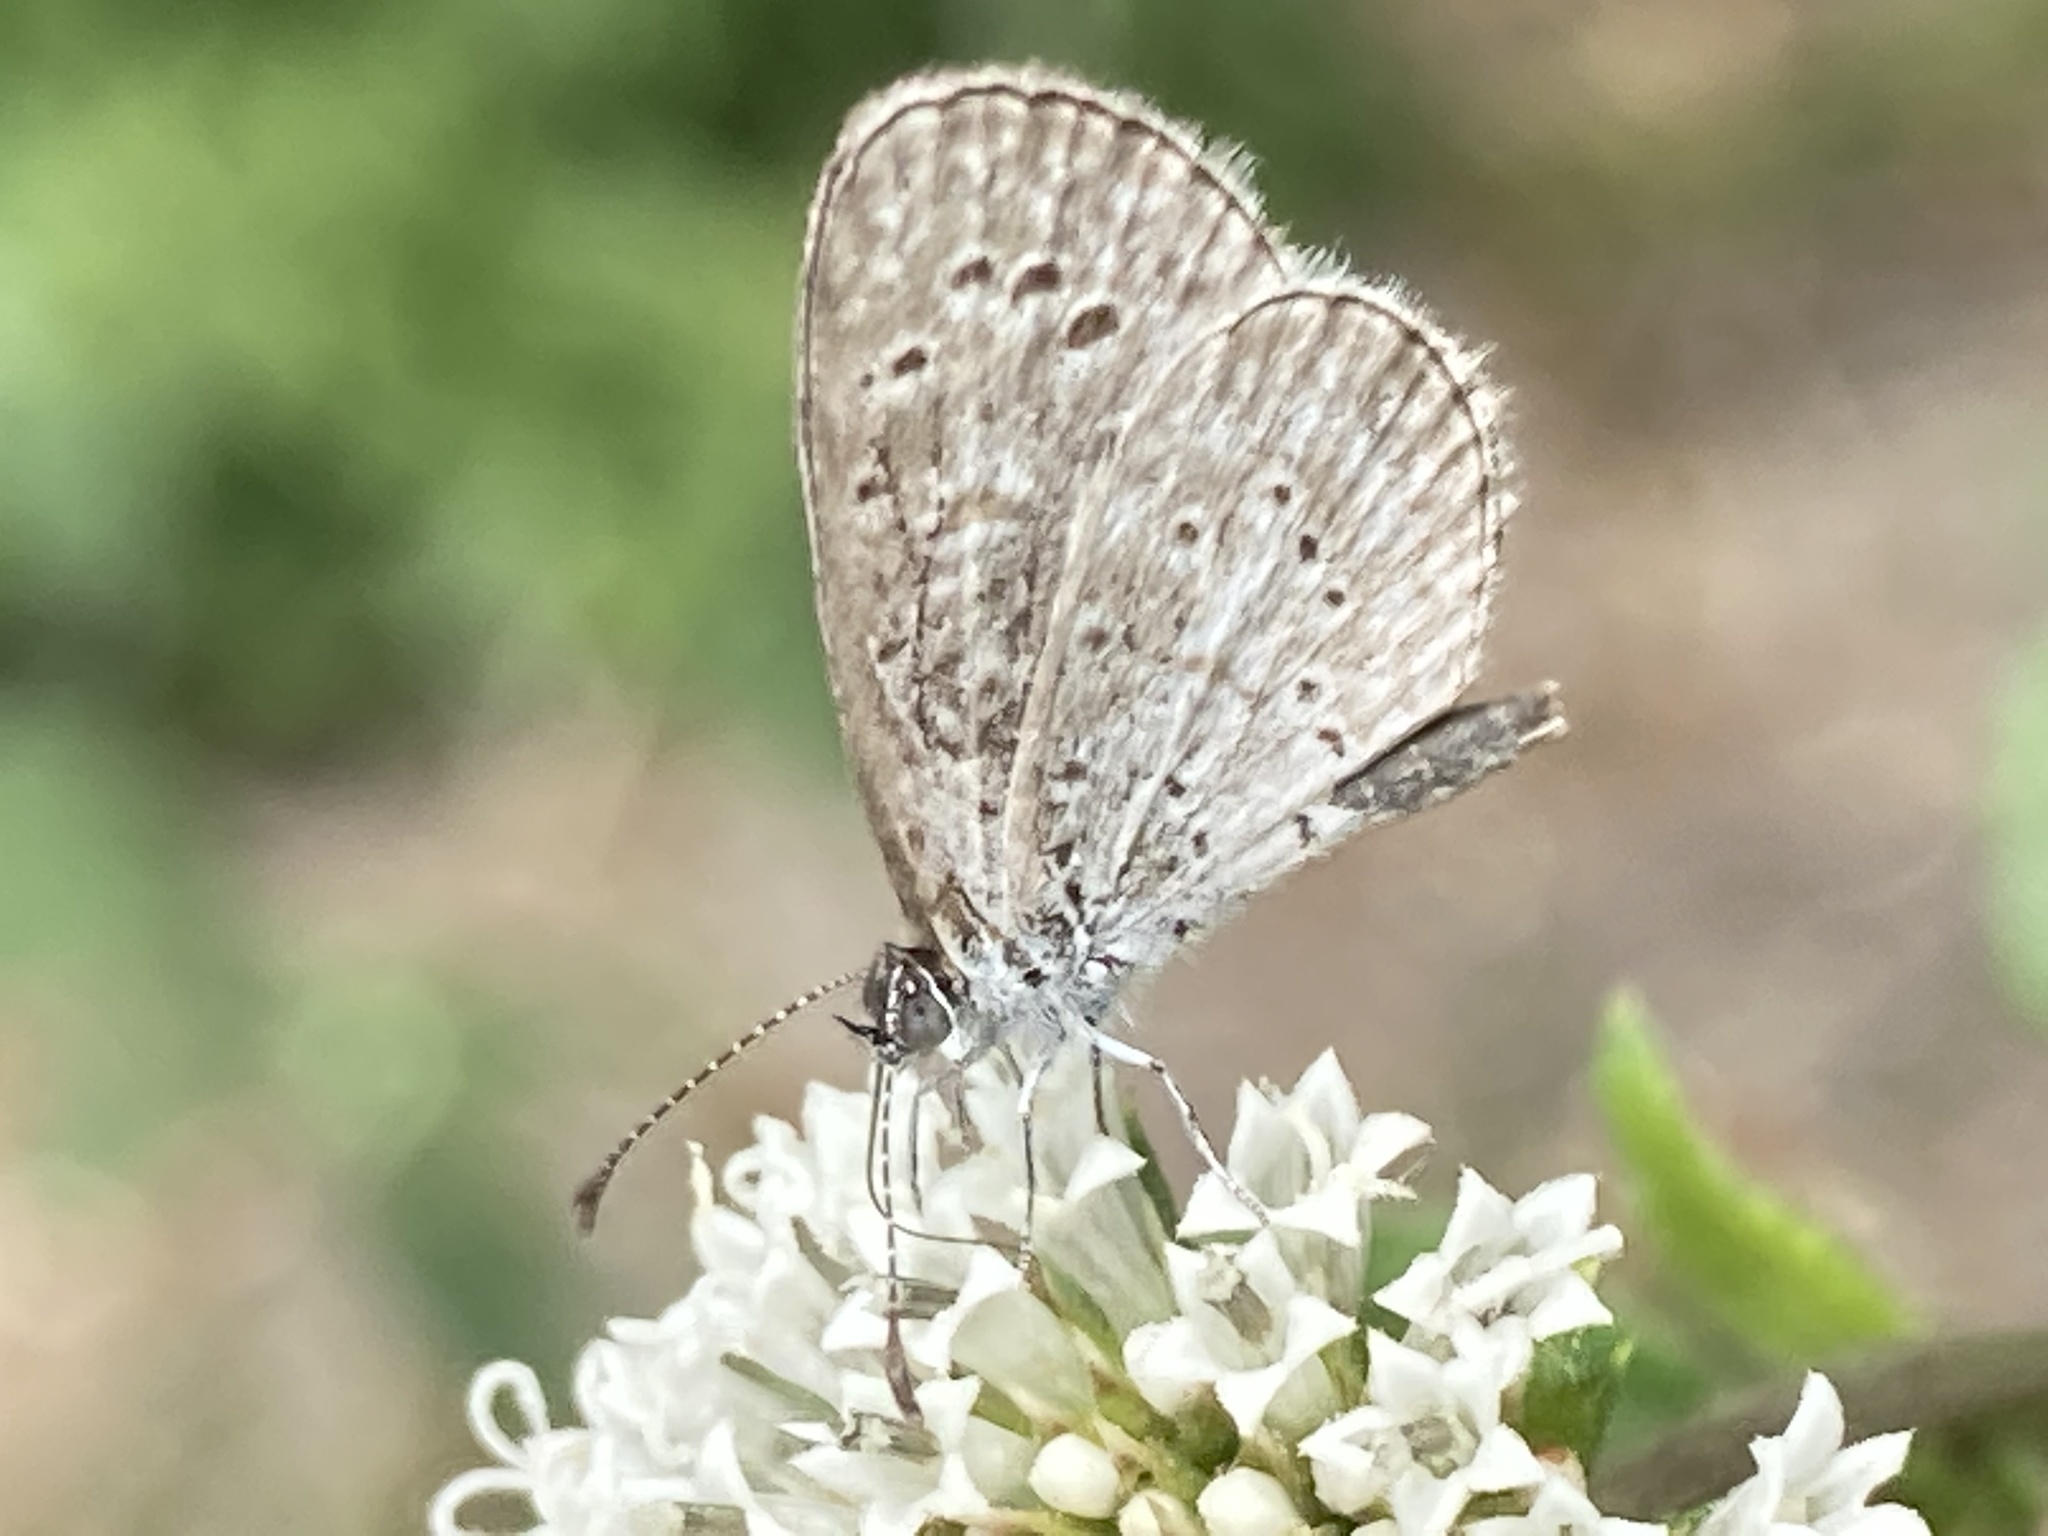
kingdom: Animalia
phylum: Arthropoda
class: Insecta
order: Lepidoptera
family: Lycaenidae
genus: Lycaena
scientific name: Lycaena cyna
